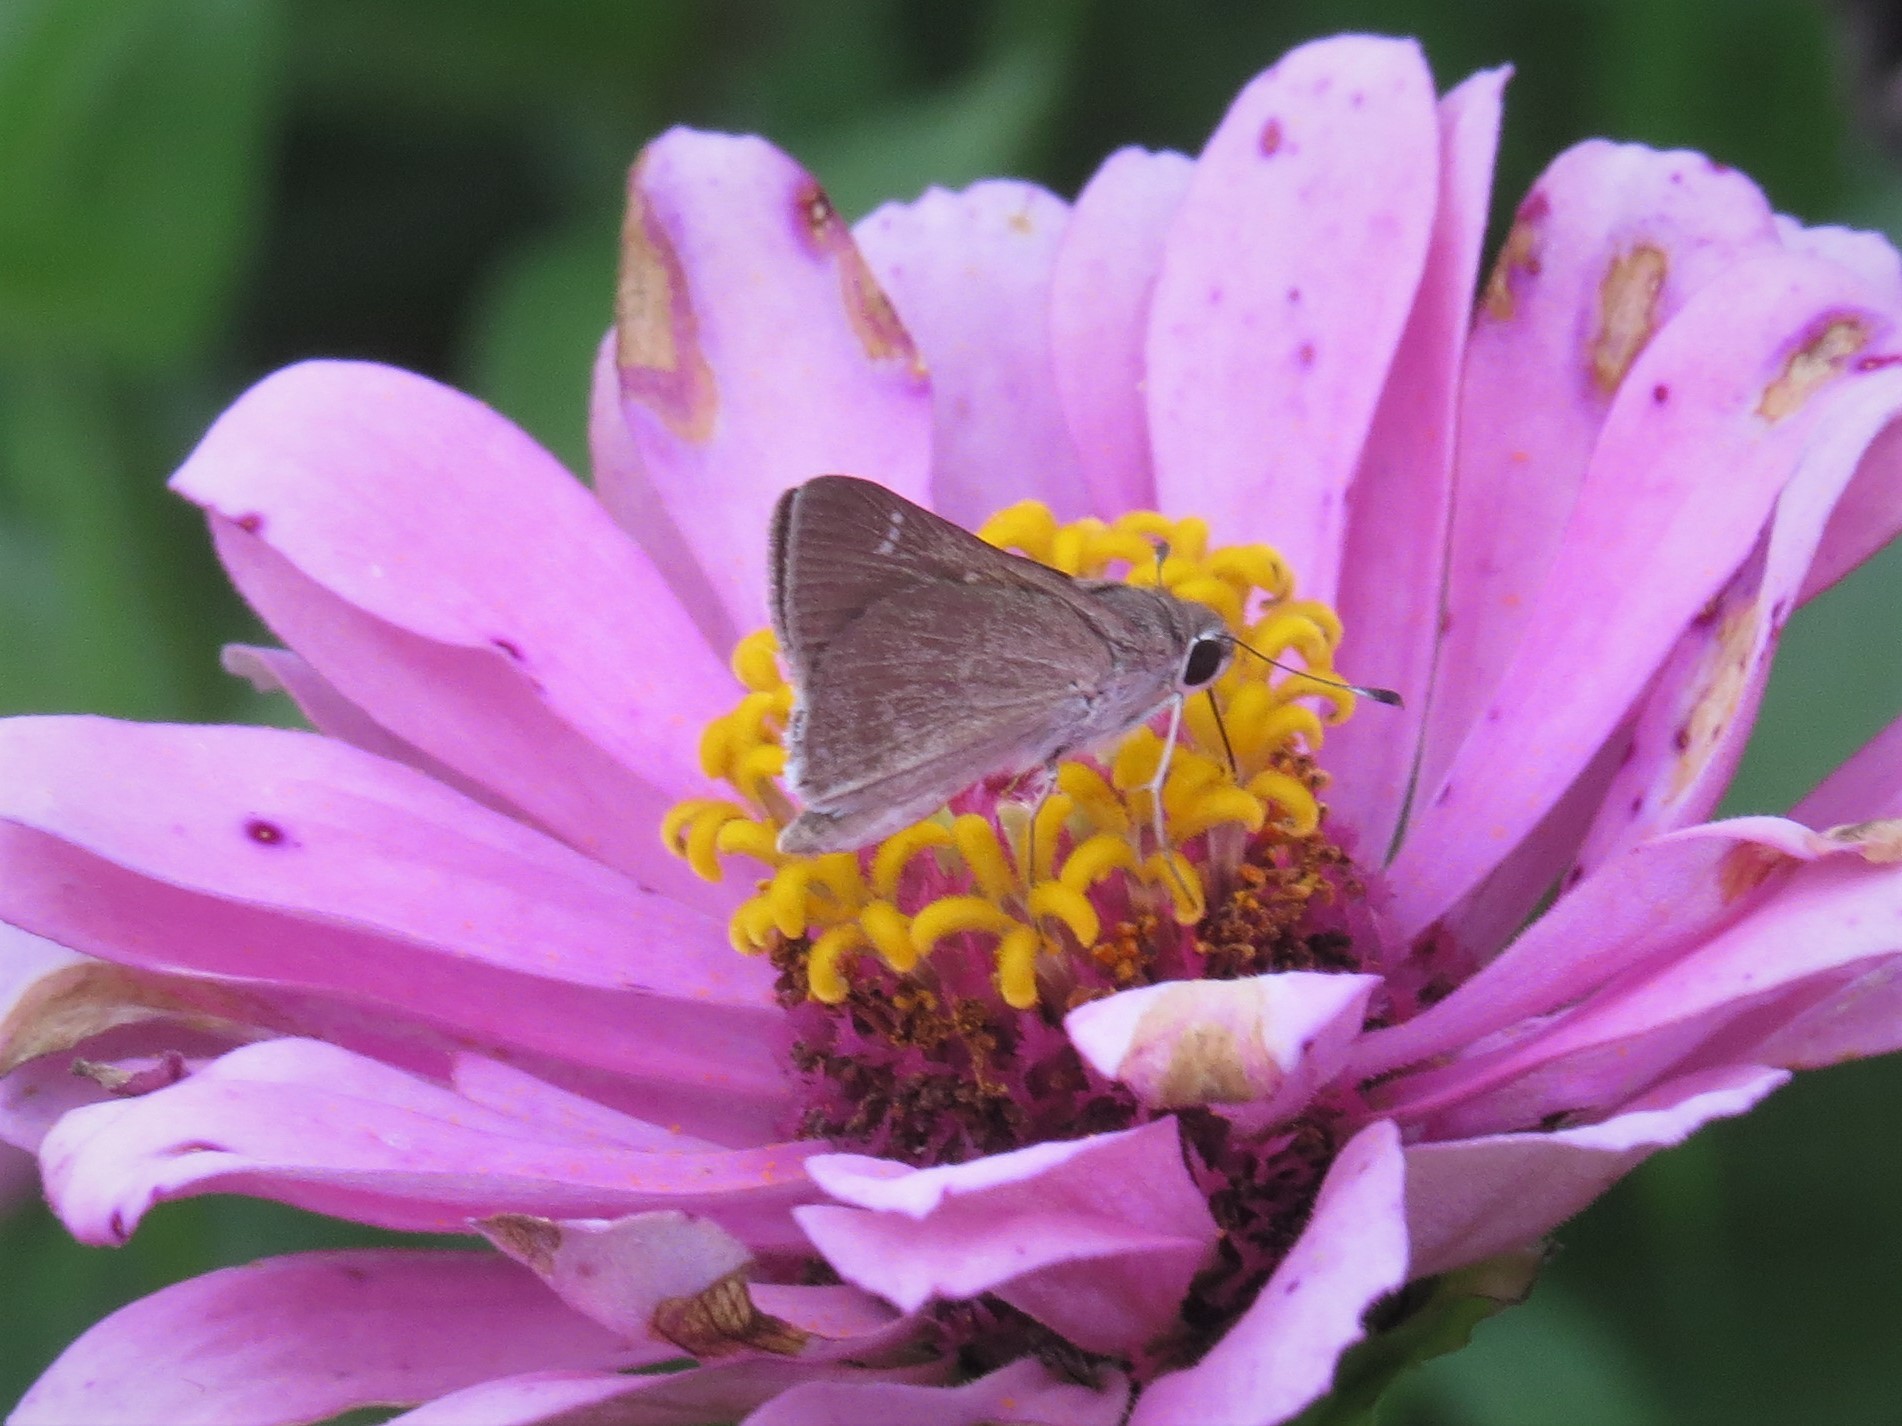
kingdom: Animalia
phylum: Arthropoda
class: Insecta
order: Lepidoptera
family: Hesperiidae
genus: Lerodea
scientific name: Lerodea eufala
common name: Eufala skipper
